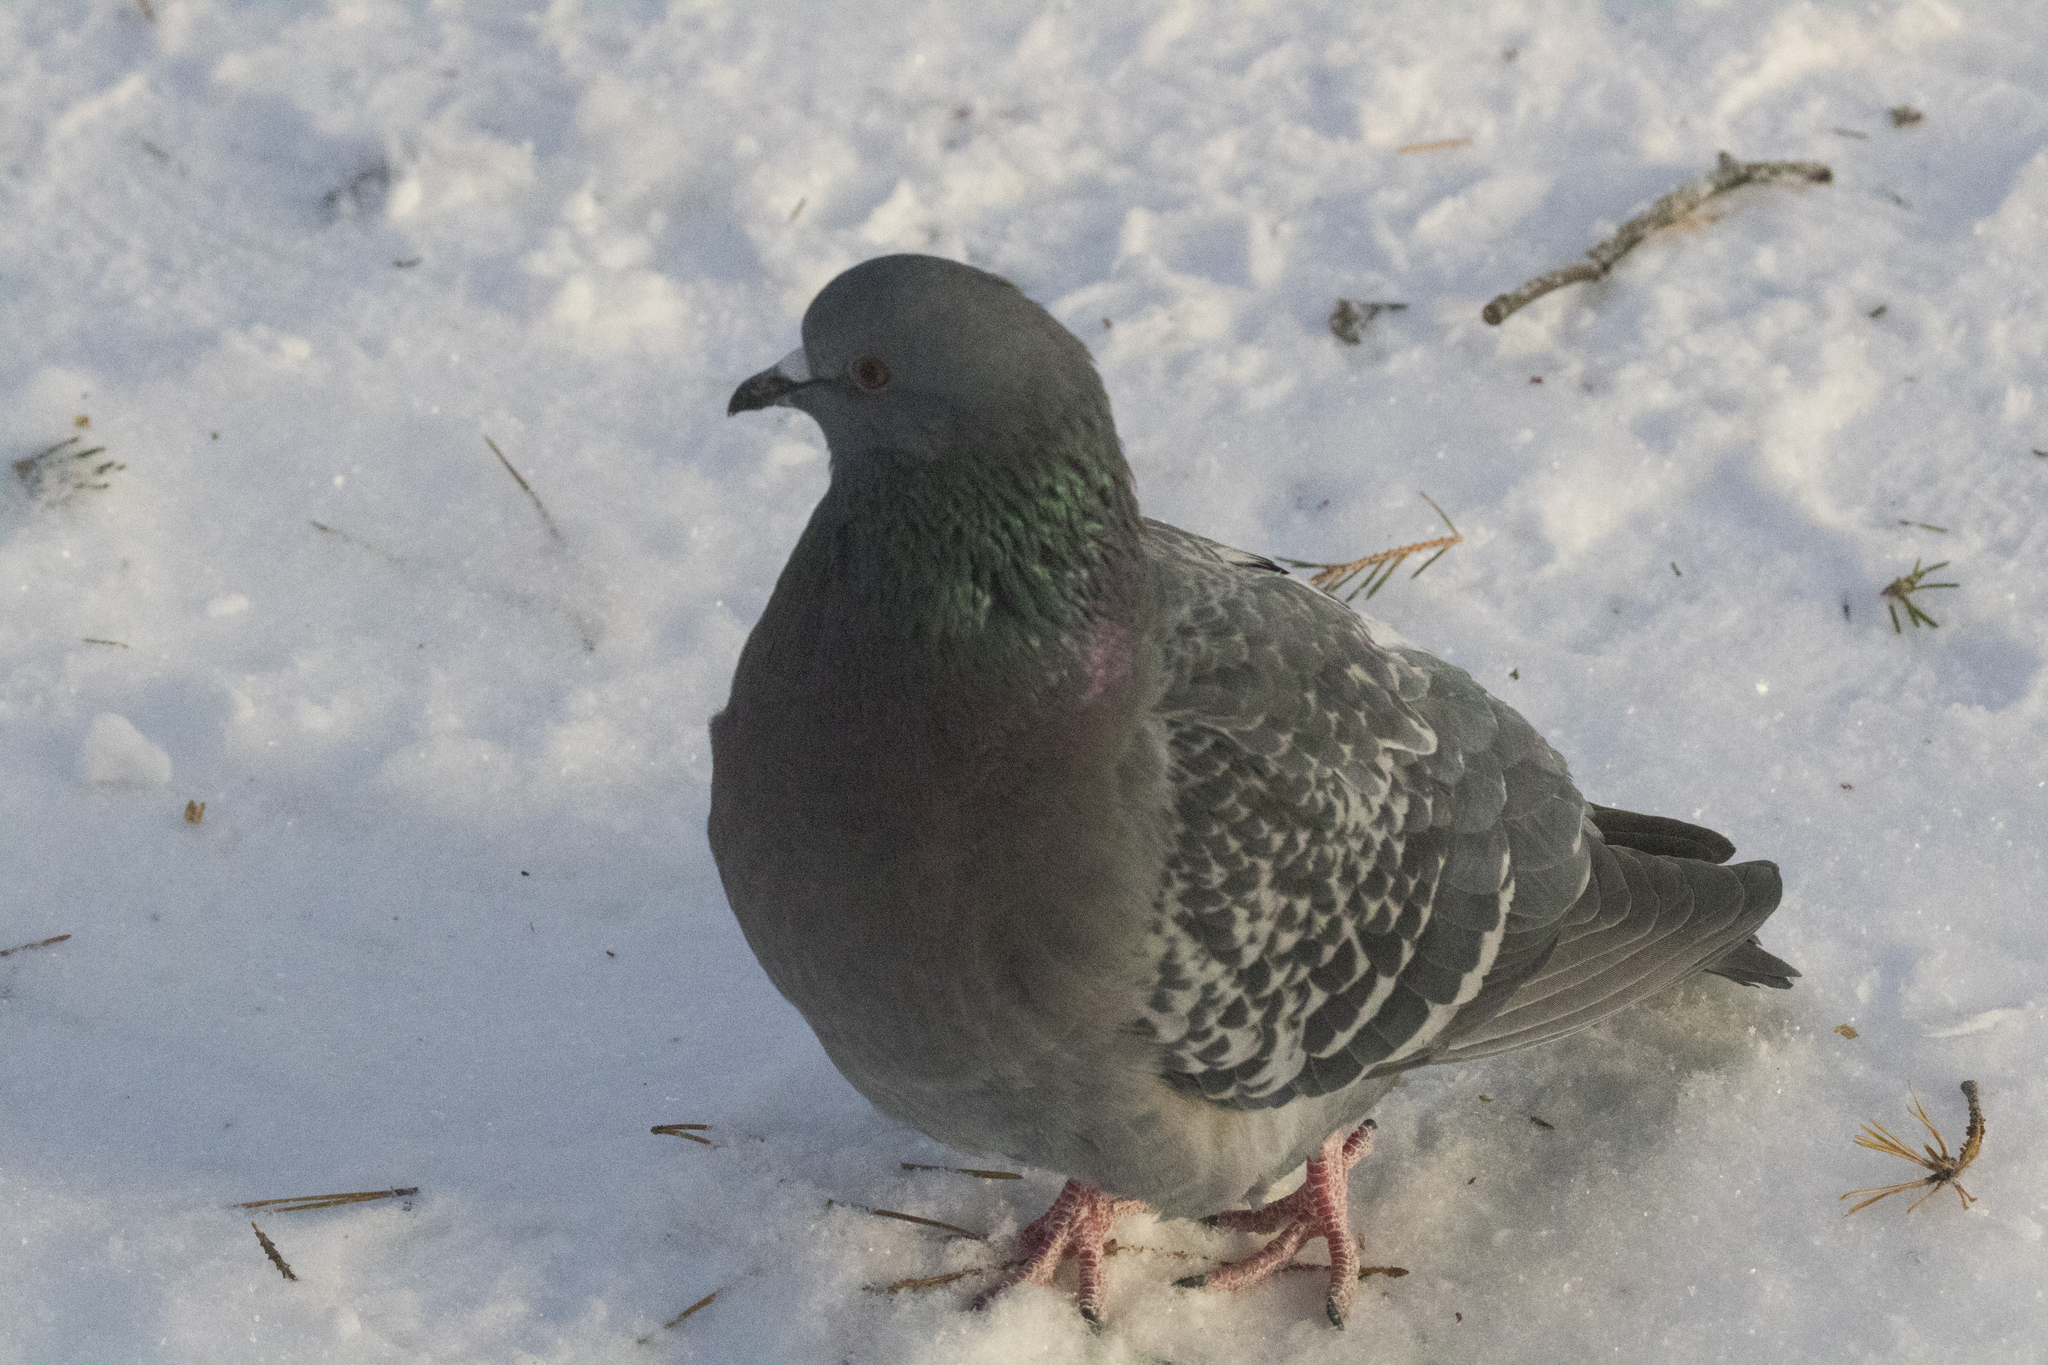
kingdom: Animalia
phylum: Chordata
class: Aves
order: Columbiformes
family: Columbidae
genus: Columba
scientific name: Columba livia
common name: Rock pigeon
